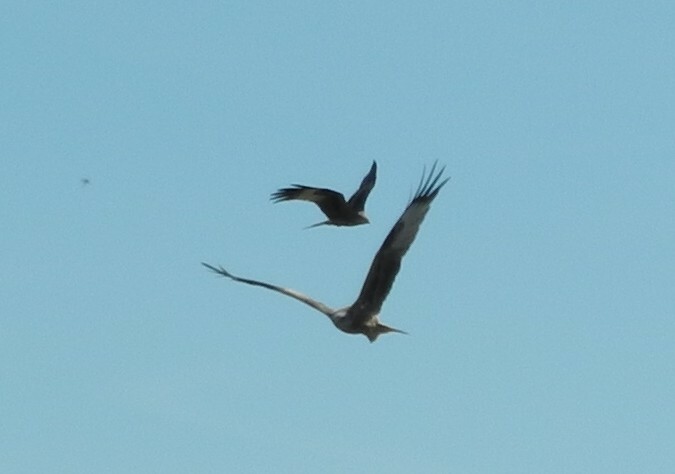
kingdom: Animalia
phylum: Chordata
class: Aves
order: Accipitriformes
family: Accipitridae
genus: Milvus
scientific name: Milvus milvus
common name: Red kite
